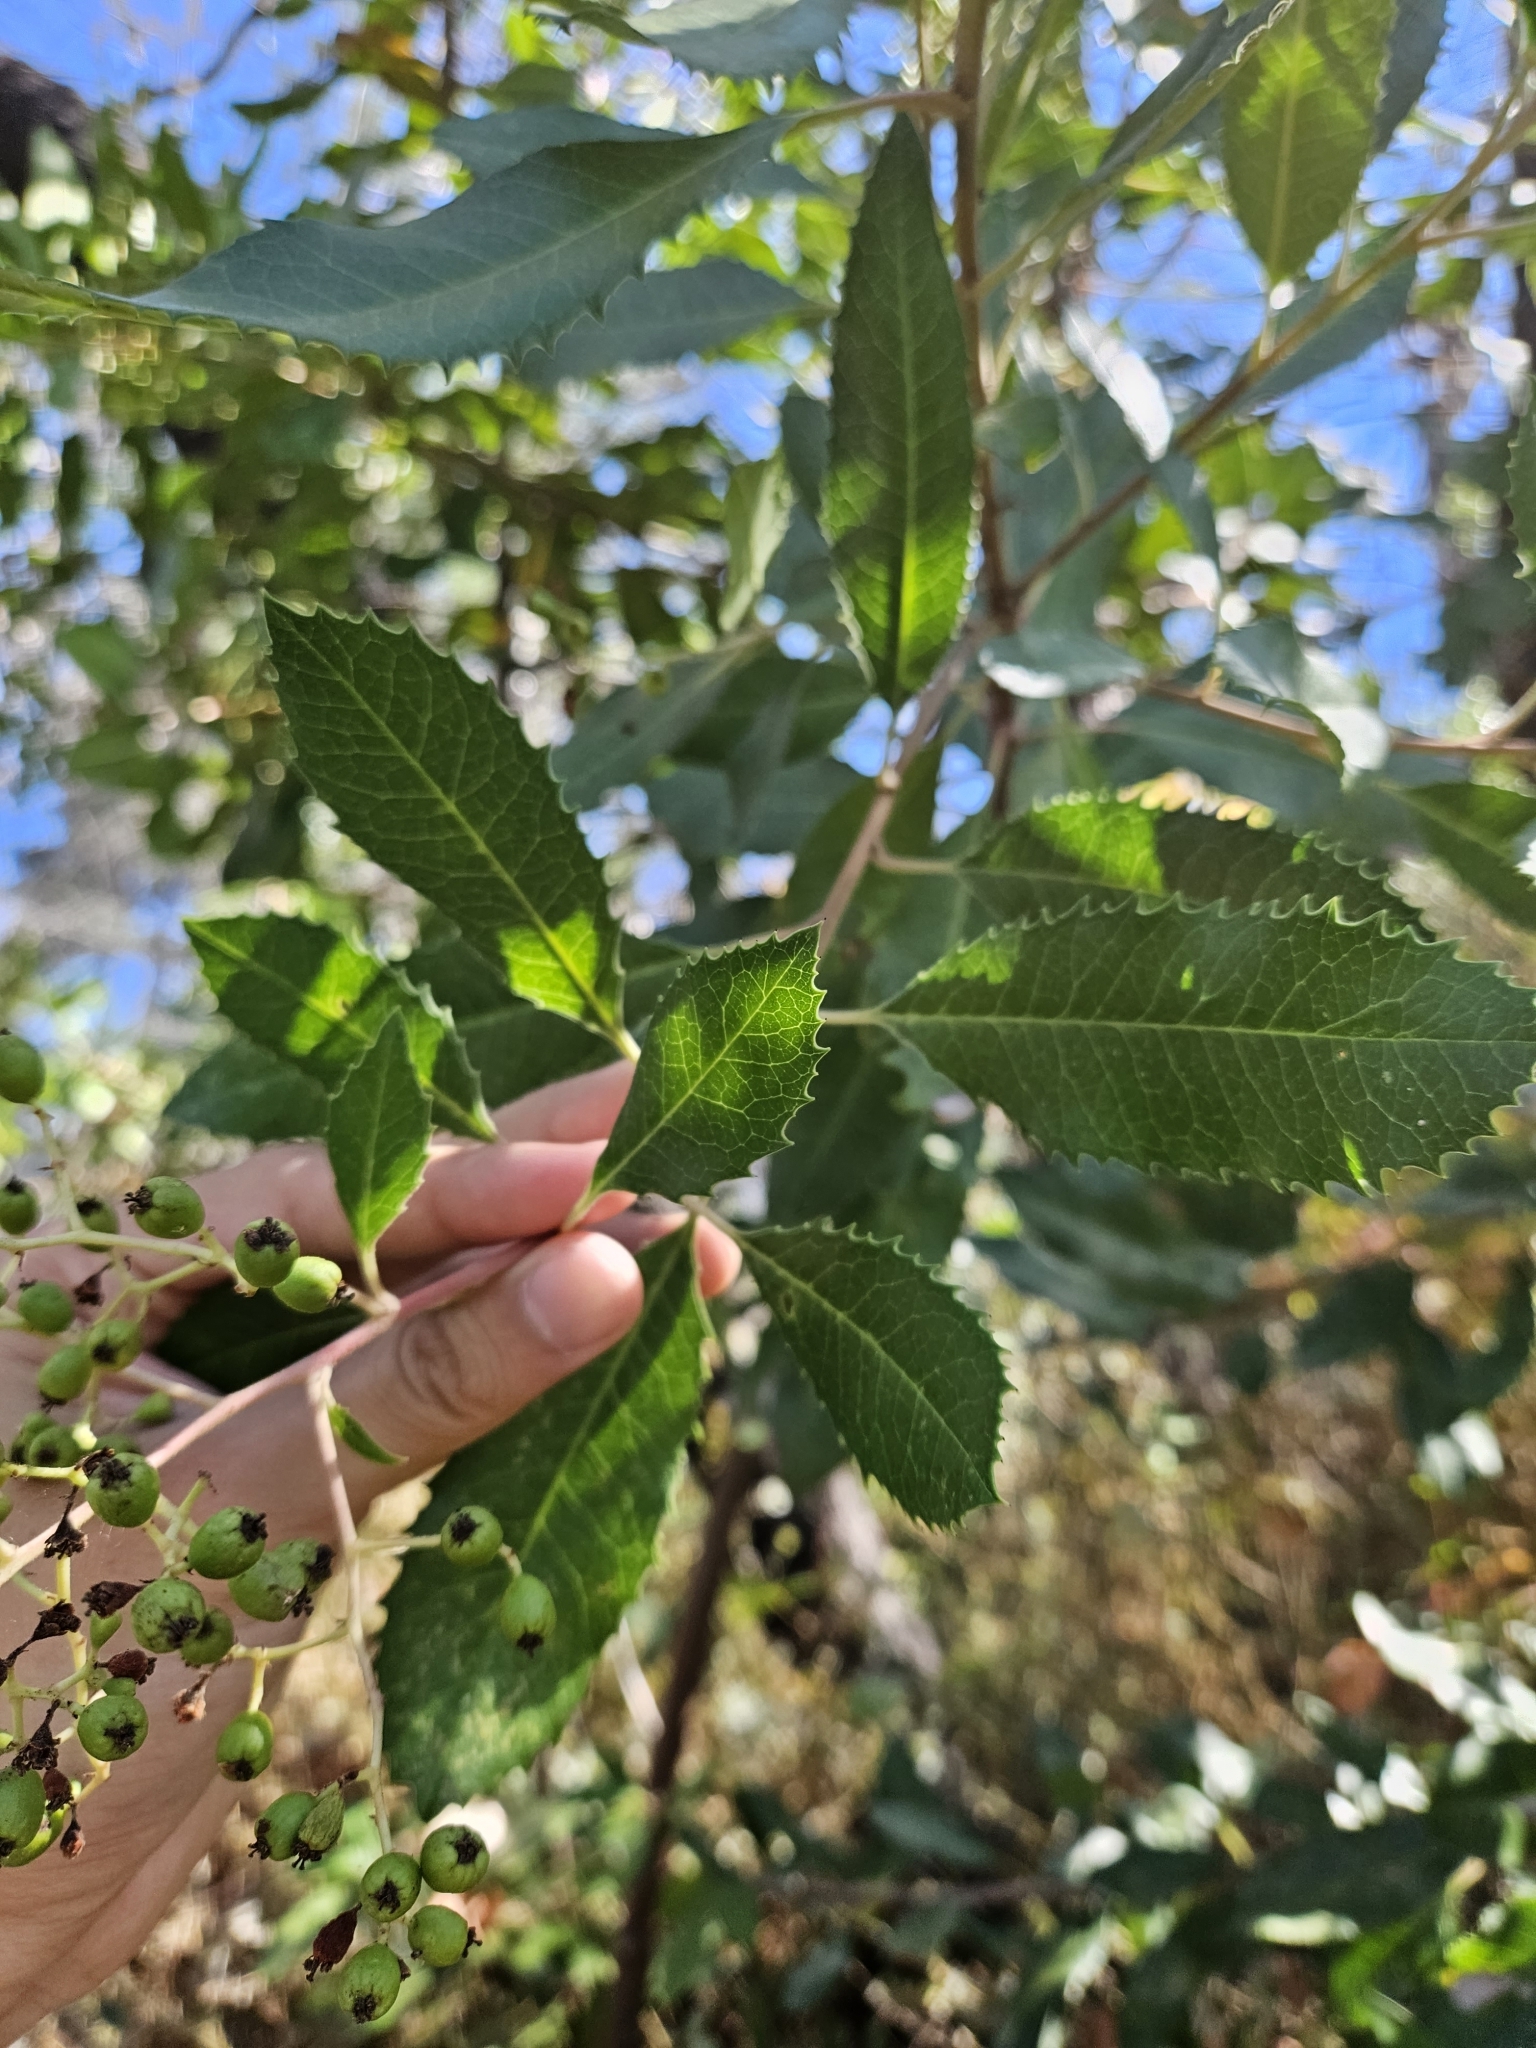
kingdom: Plantae
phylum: Tracheophyta
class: Magnoliopsida
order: Rosales
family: Rosaceae
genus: Heteromeles
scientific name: Heteromeles arbutifolia
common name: California-holly
